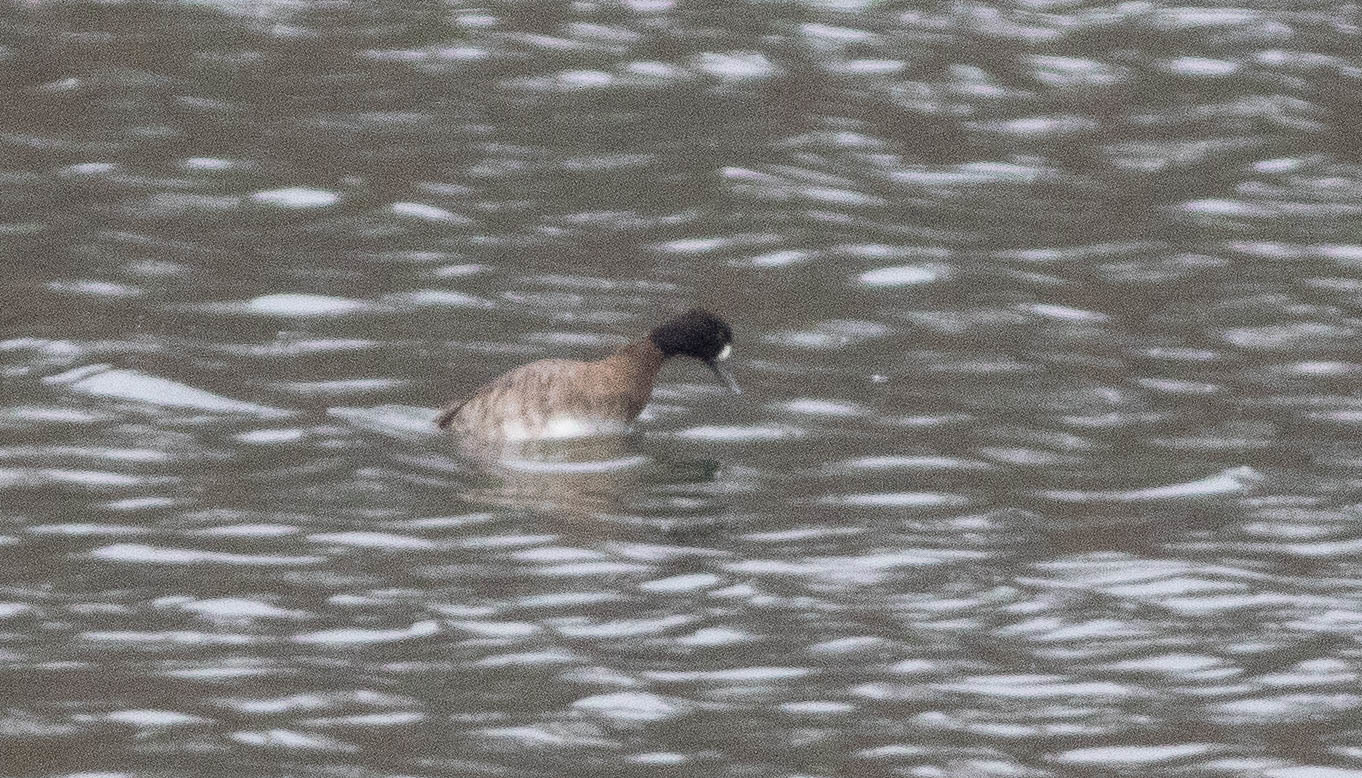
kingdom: Animalia
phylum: Chordata
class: Aves
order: Anseriformes
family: Anatidae
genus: Aythya
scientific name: Aythya affinis
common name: Lesser scaup
